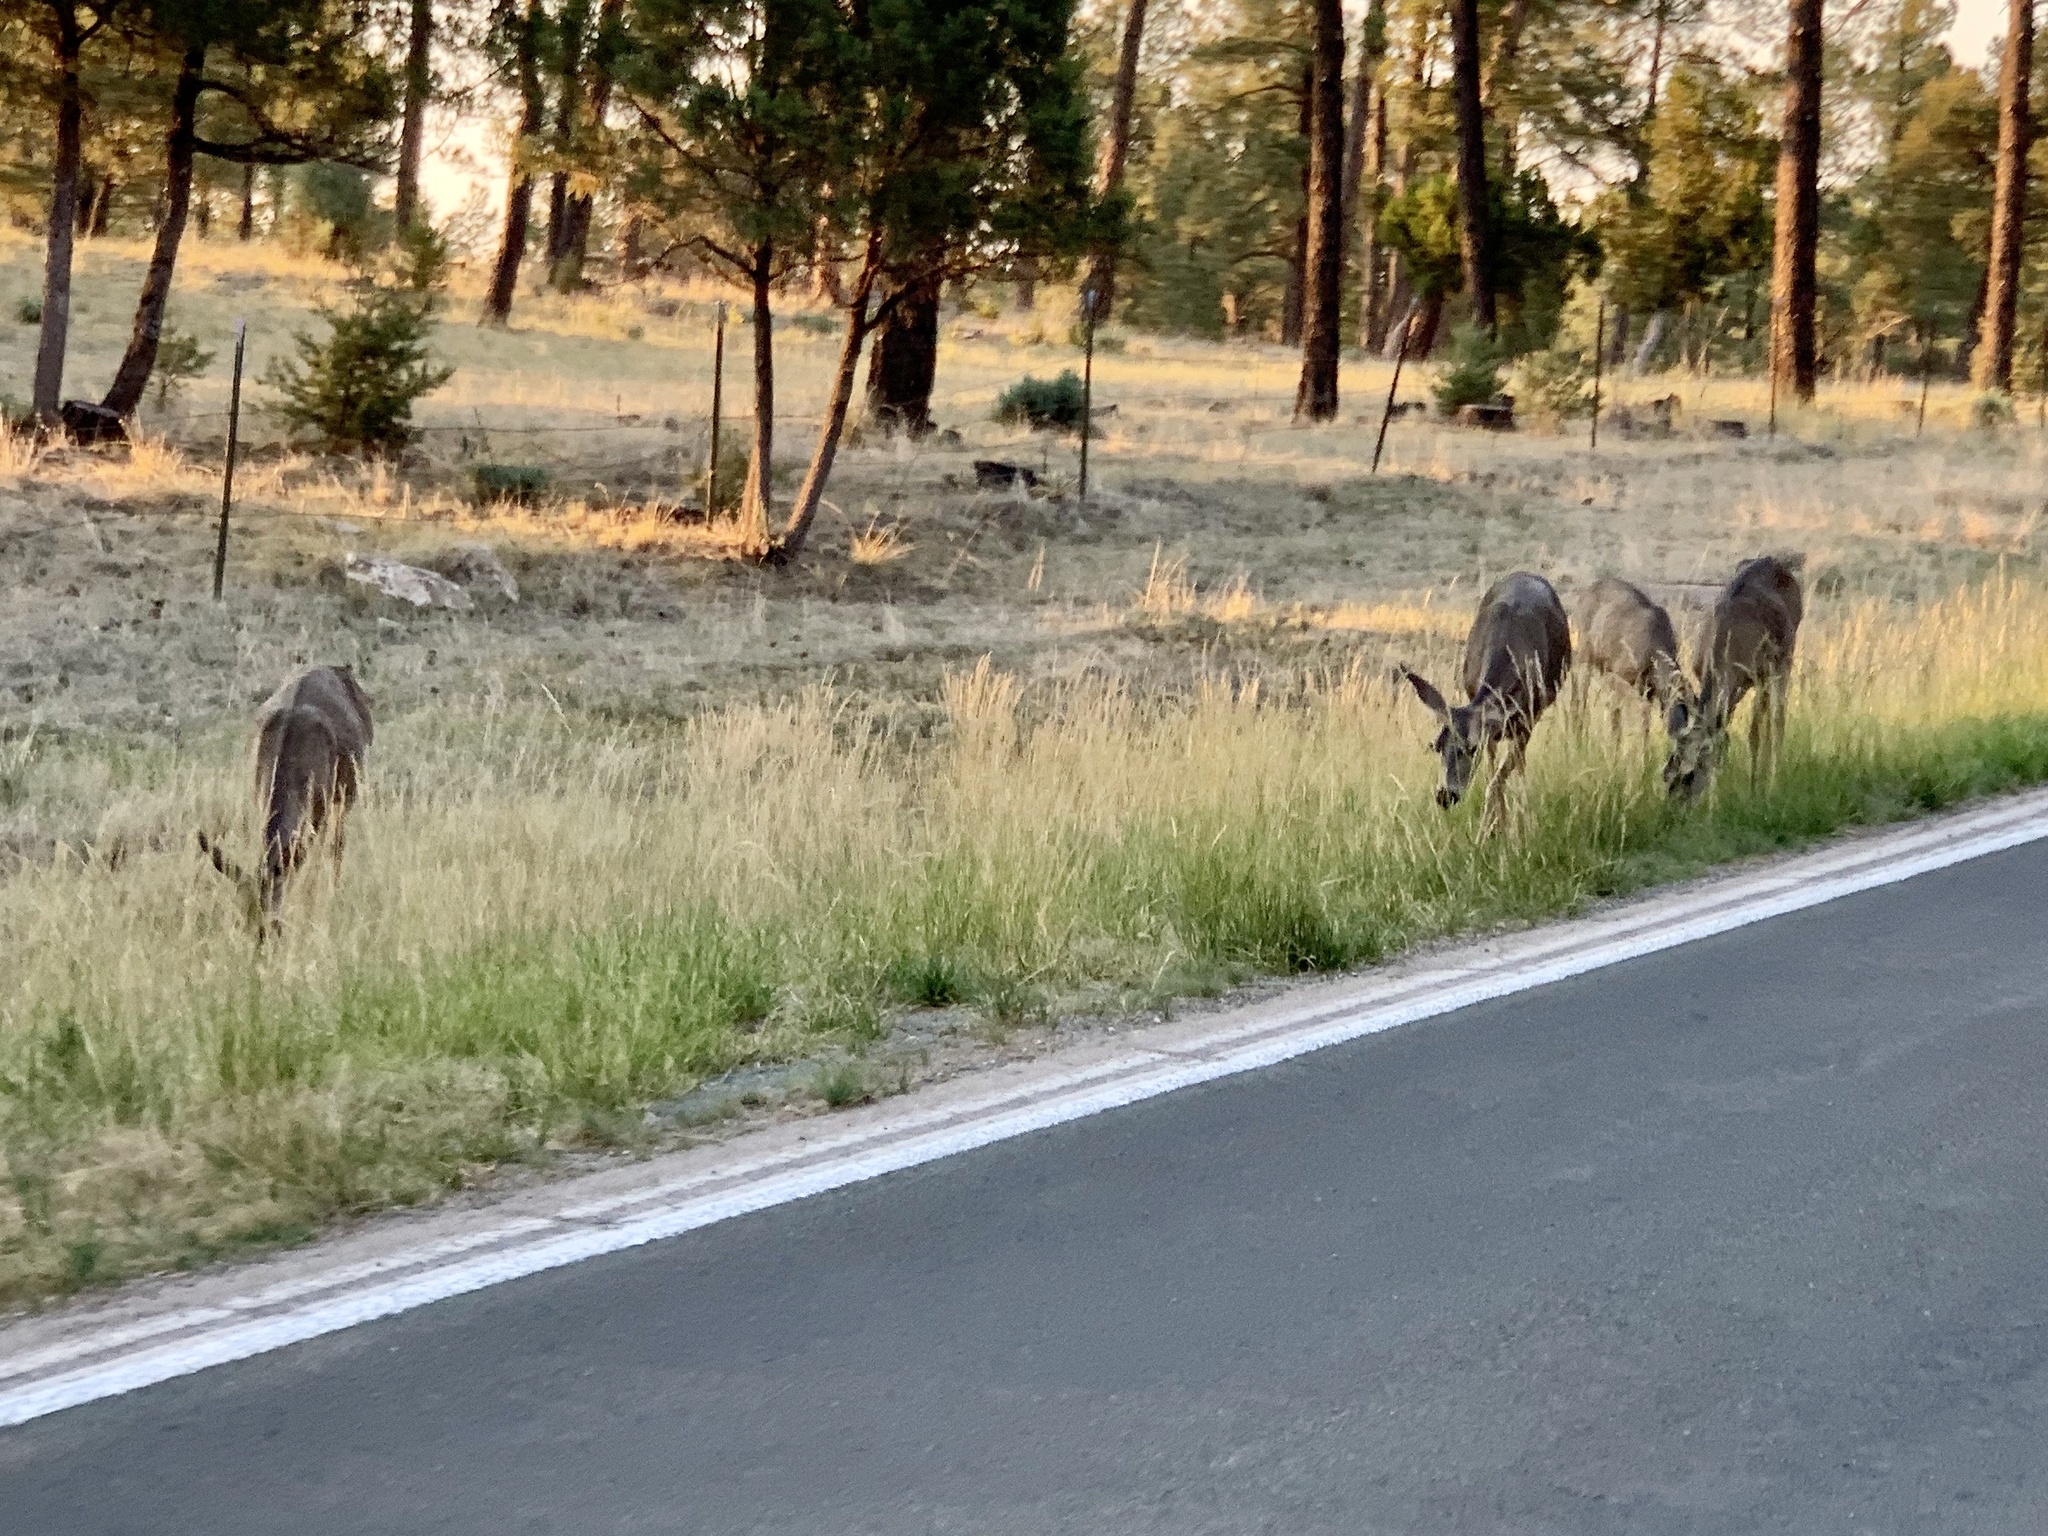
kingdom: Animalia
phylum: Chordata
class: Mammalia
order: Artiodactyla
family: Cervidae
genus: Odocoileus
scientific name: Odocoileus hemionus
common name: Mule deer
